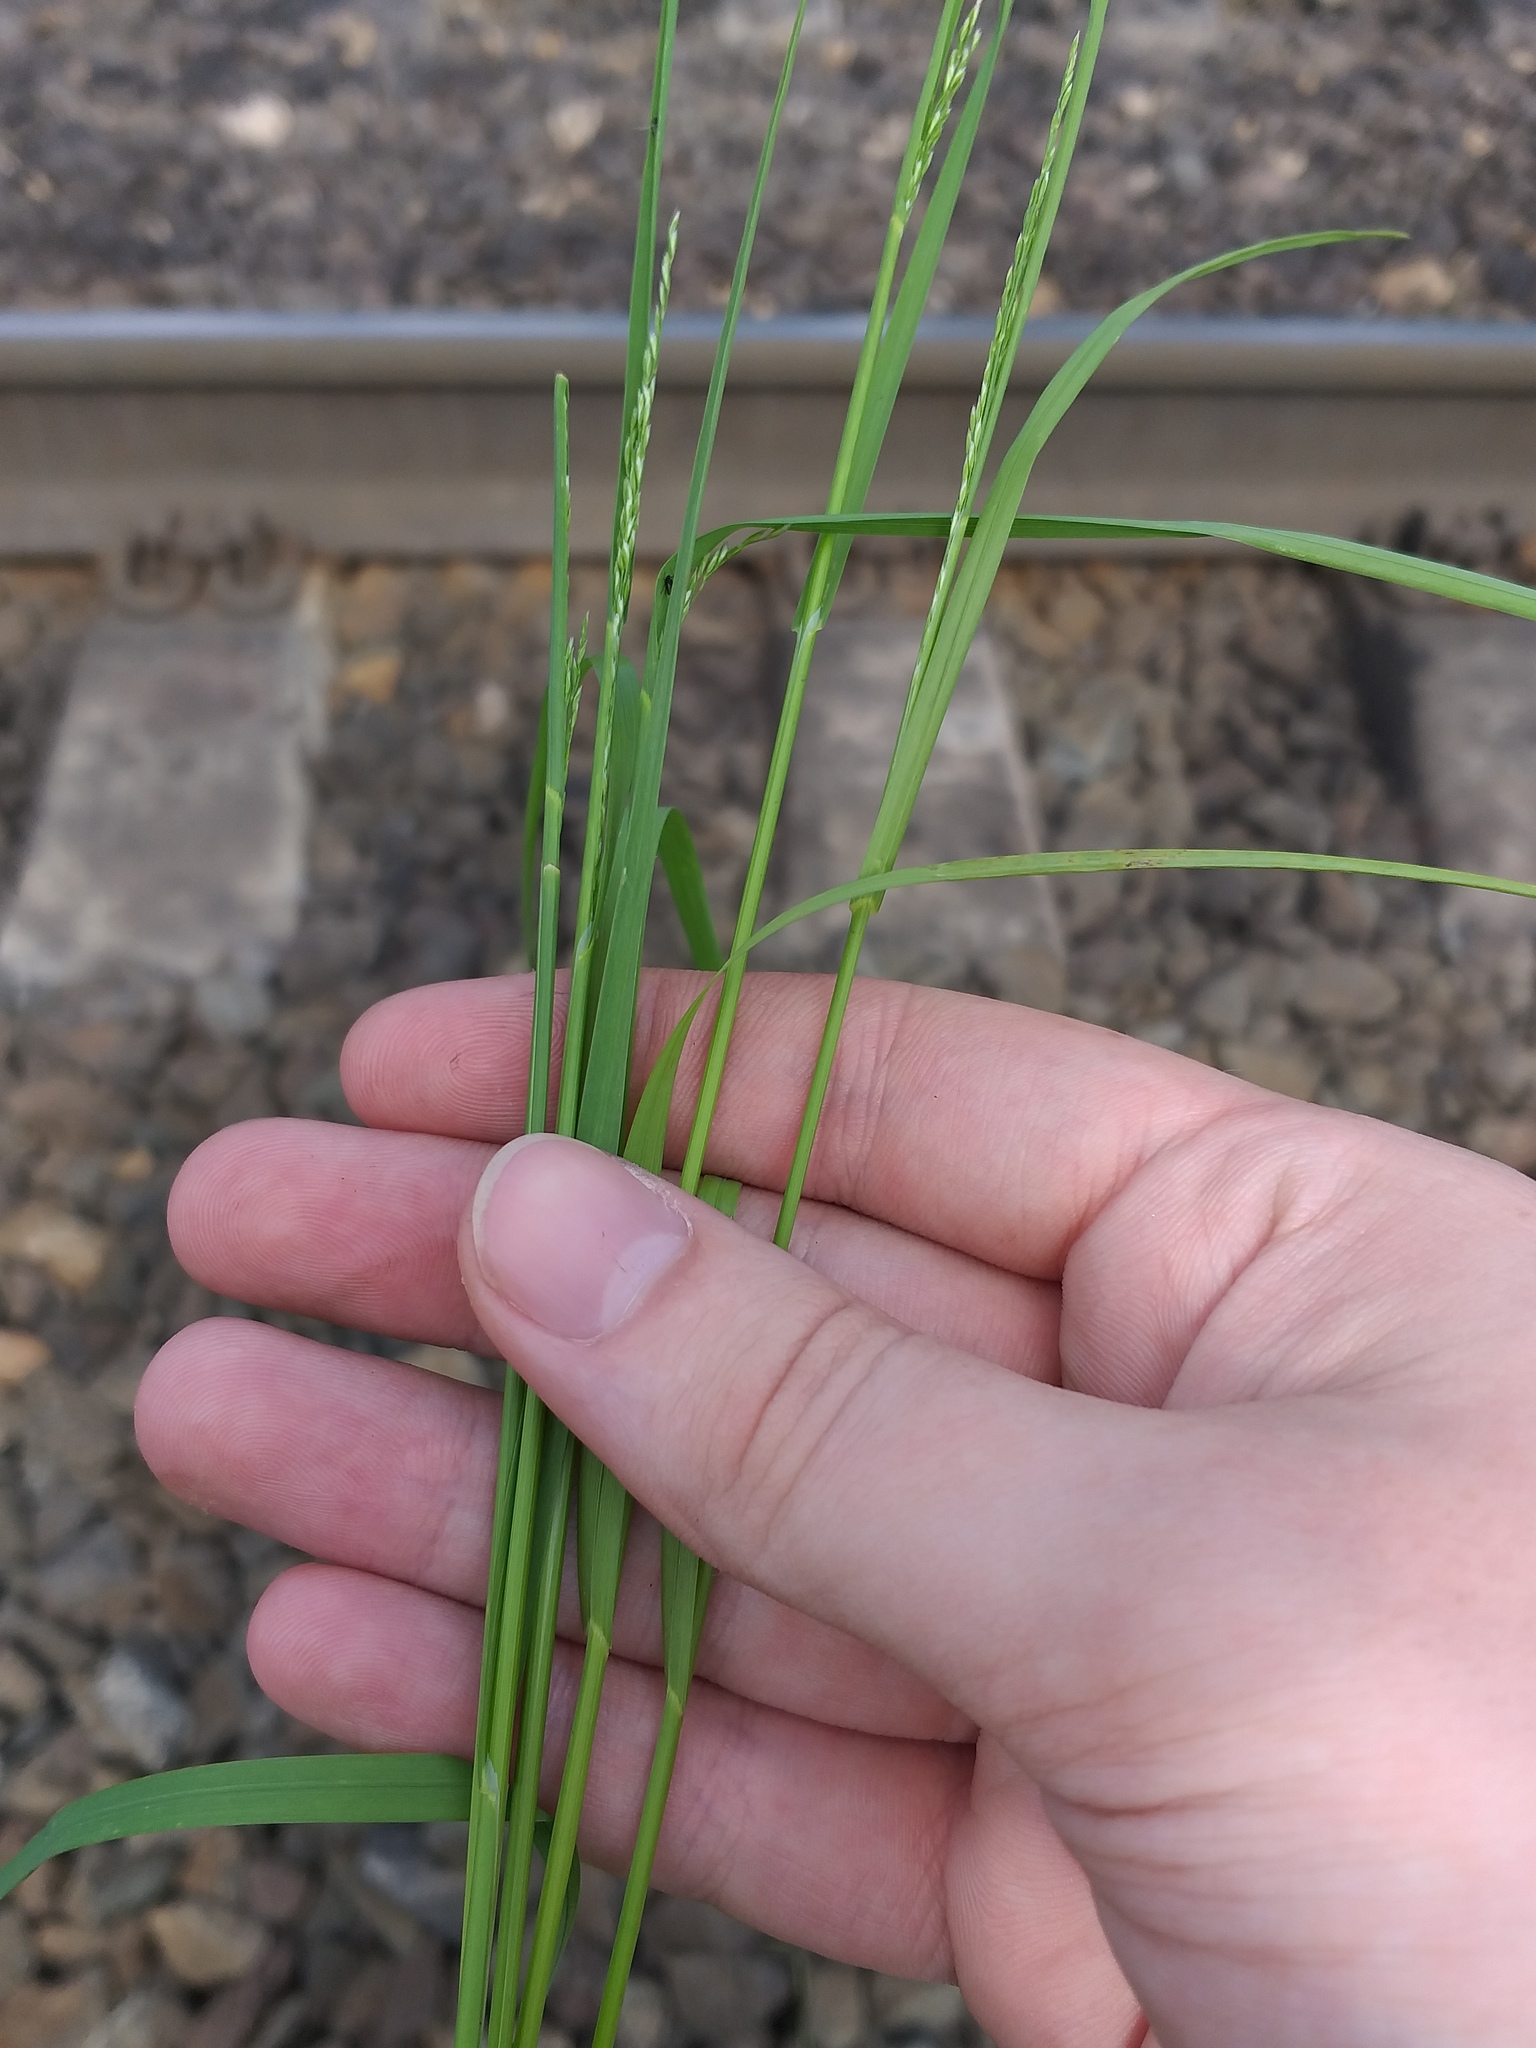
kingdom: Plantae
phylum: Tracheophyta
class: Liliopsida
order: Poales
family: Poaceae
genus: Poa
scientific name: Poa palustris
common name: Swamp meadow-grass
